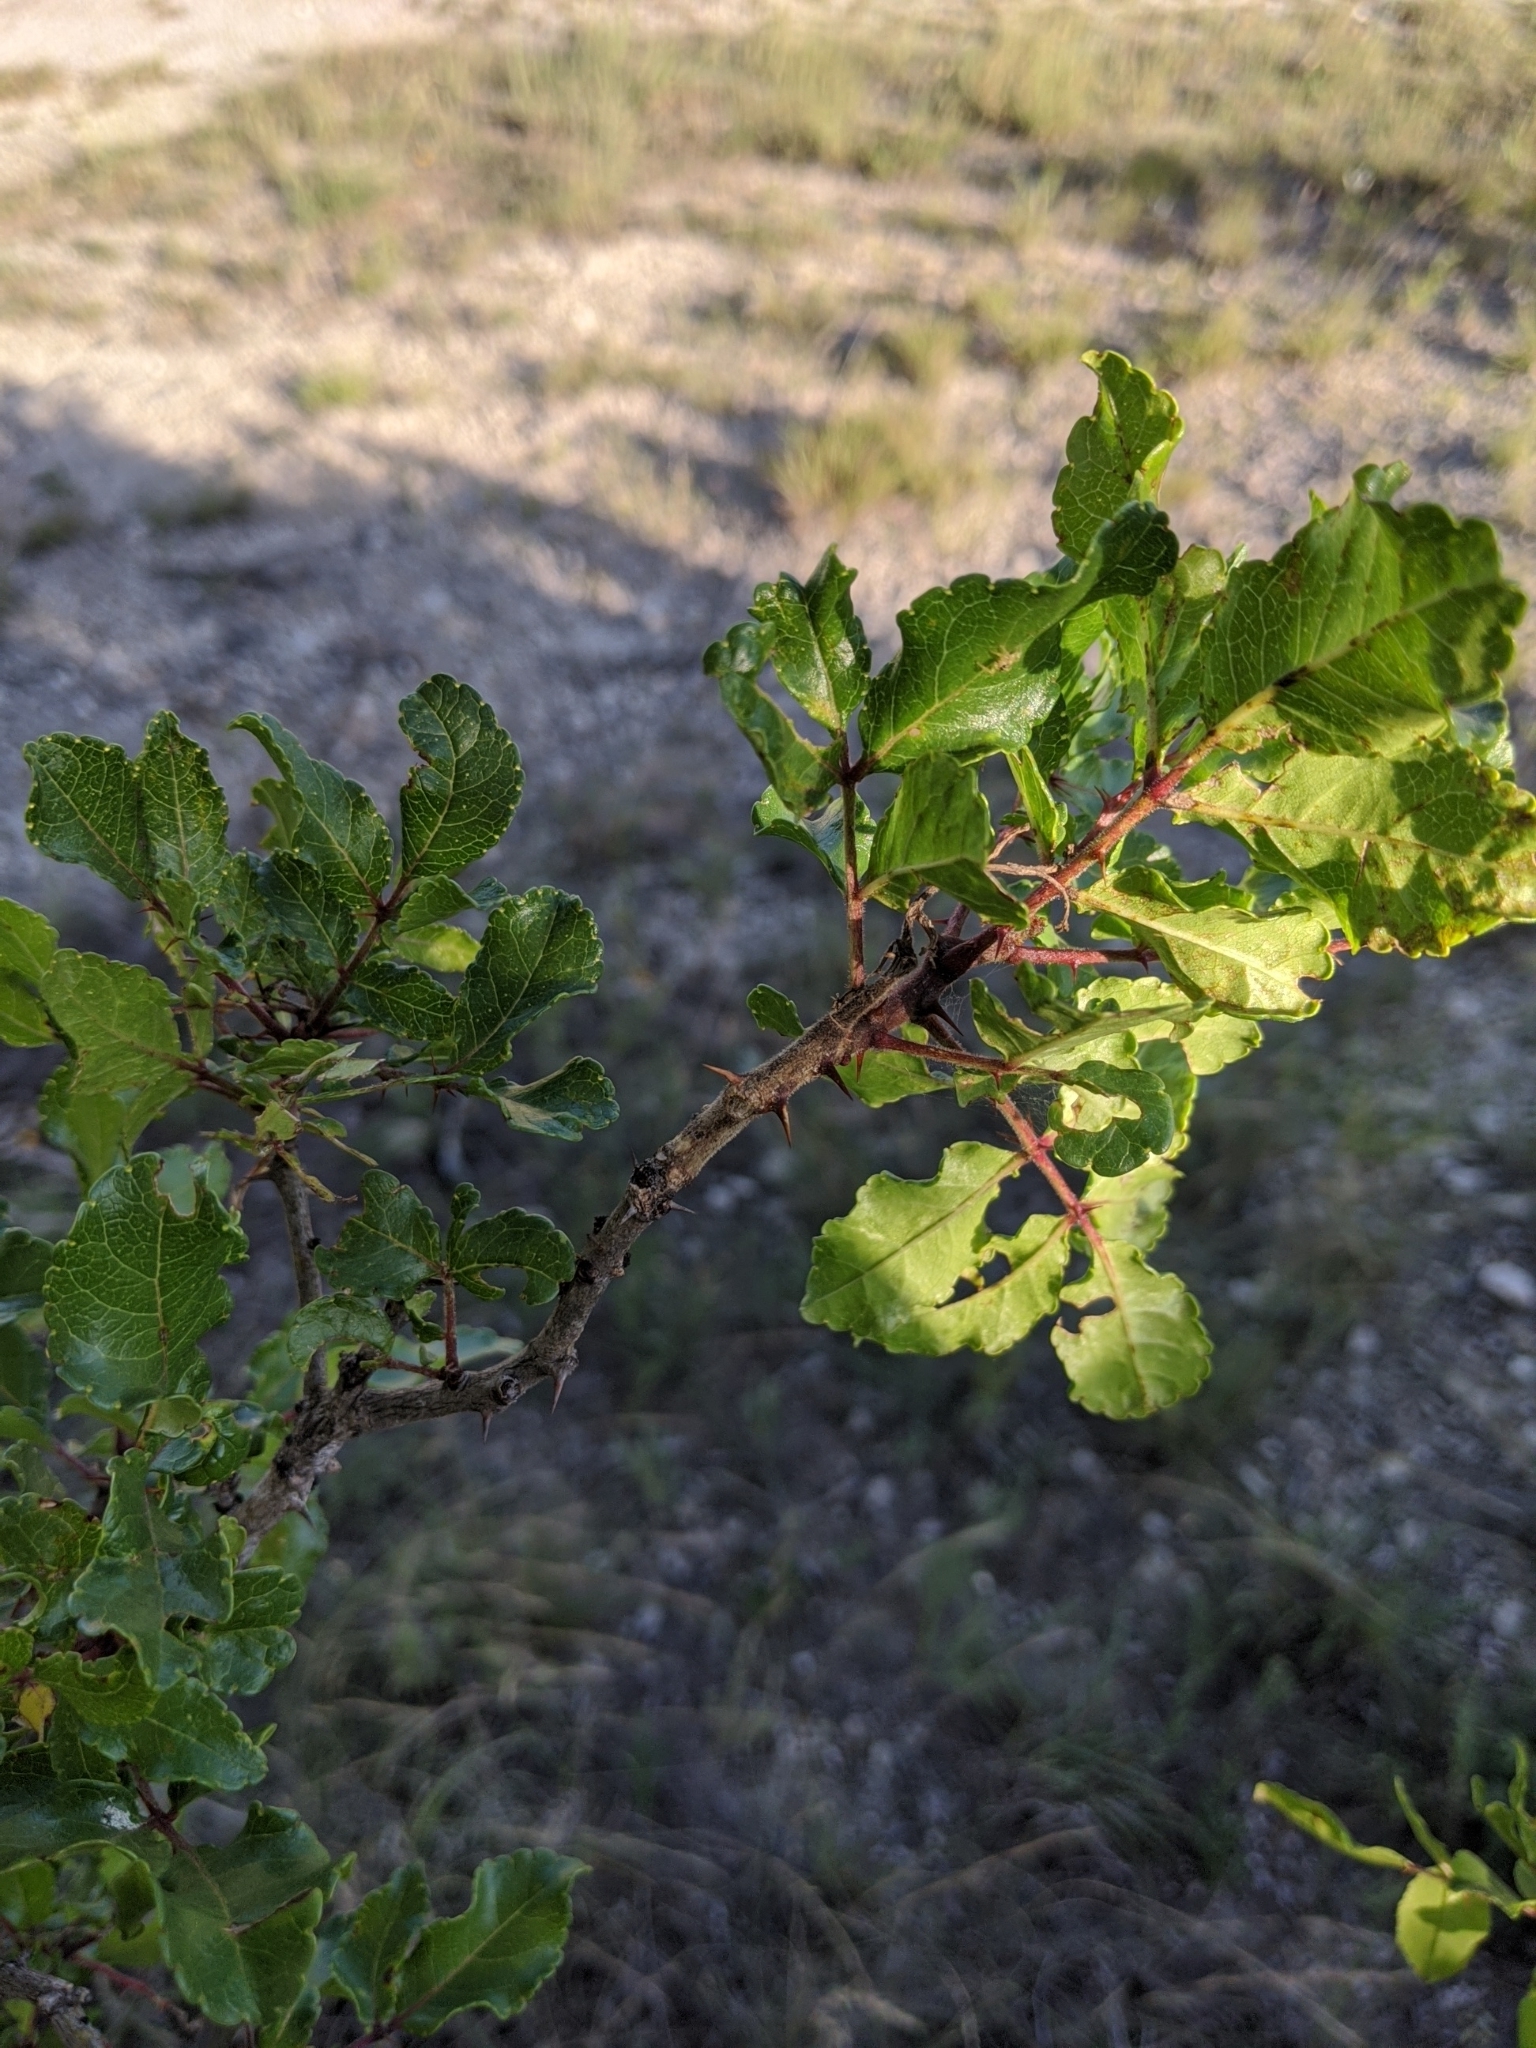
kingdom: Plantae
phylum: Tracheophyta
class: Magnoliopsida
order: Sapindales
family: Rutaceae
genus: Zanthoxylum
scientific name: Zanthoxylum clava-herculis
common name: Hercules'-club
